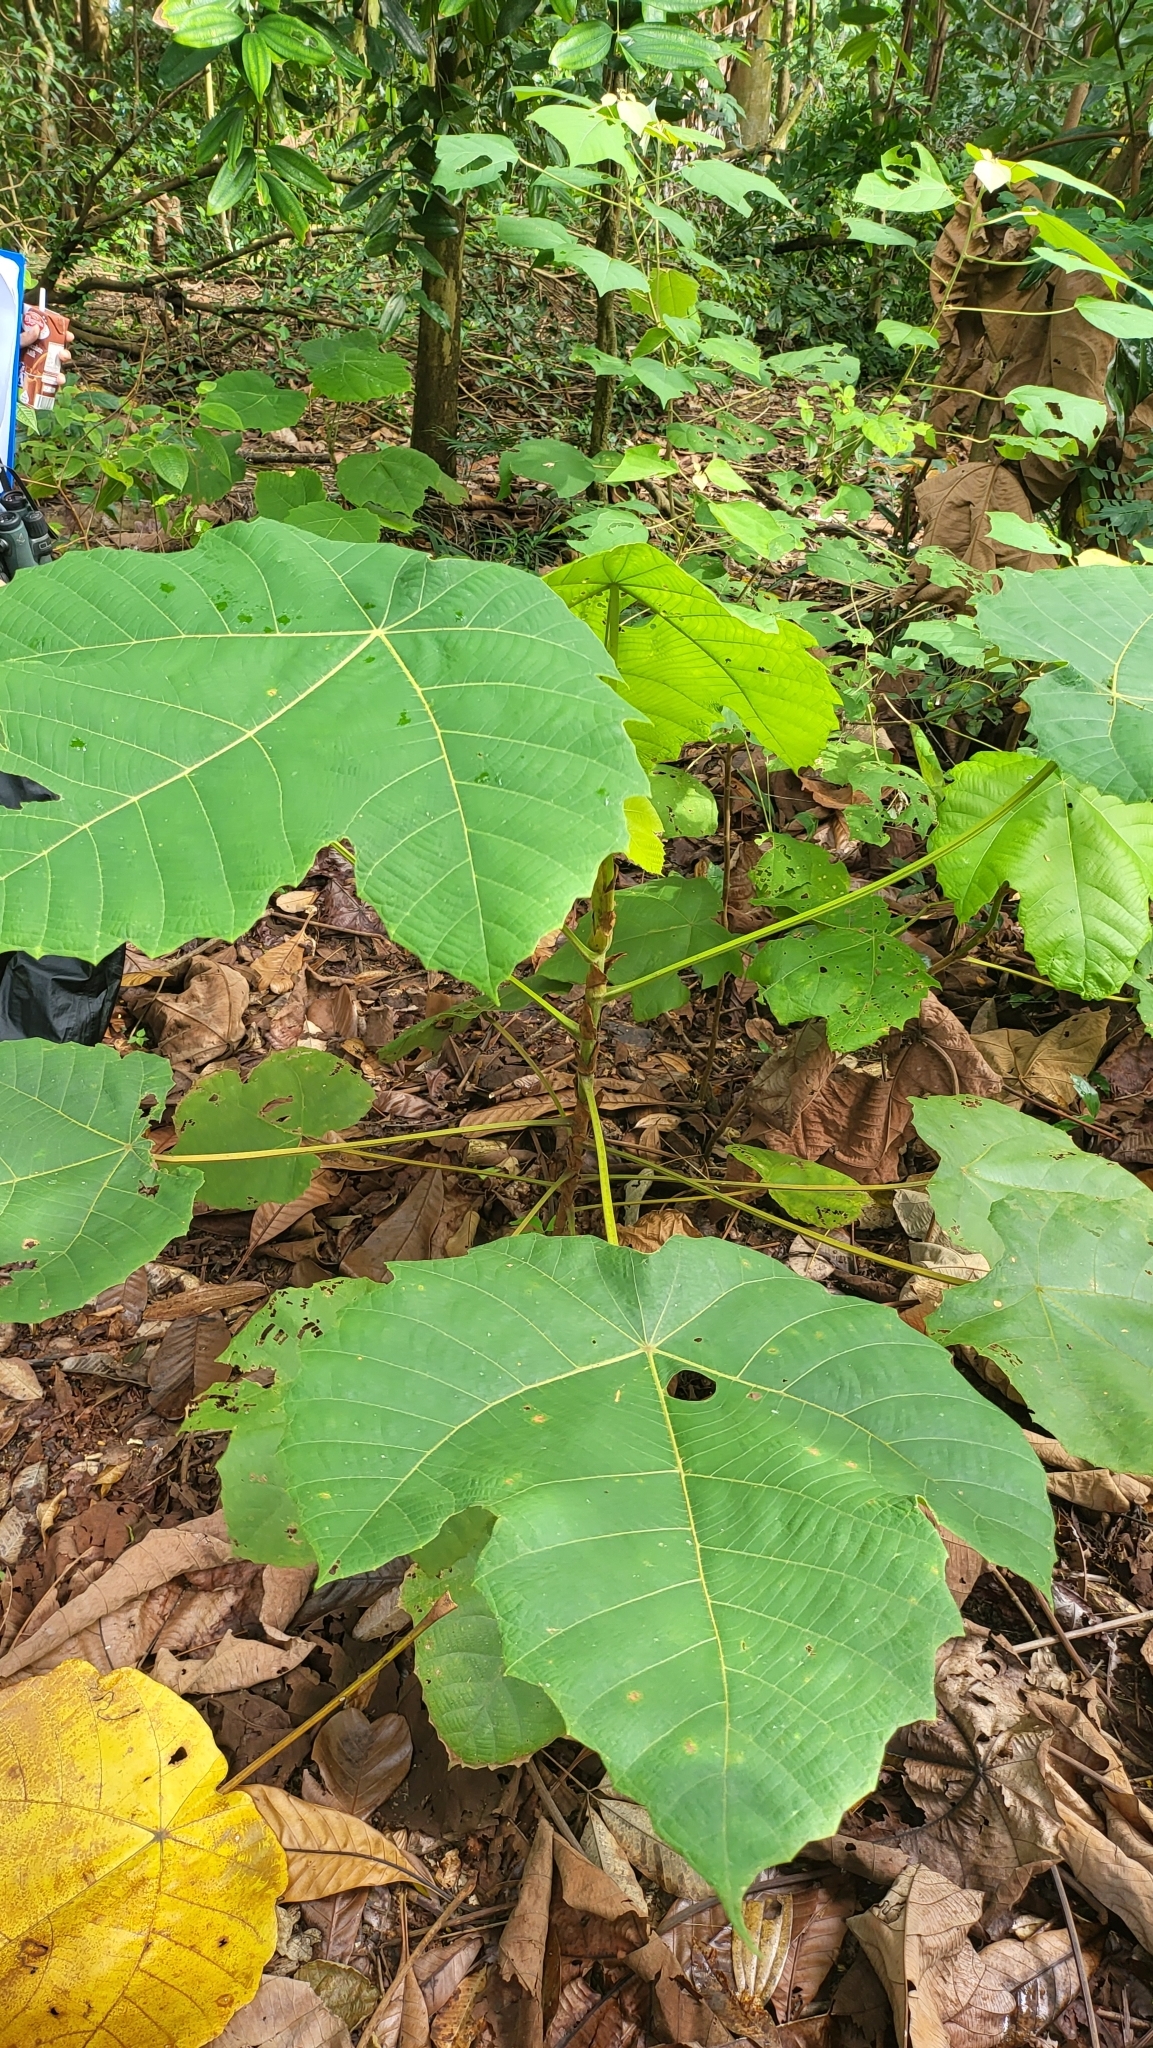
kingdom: Plantae
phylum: Tracheophyta
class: Magnoliopsida
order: Malpighiales
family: Euphorbiaceae
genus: Macaranga
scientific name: Macaranga gigantea
